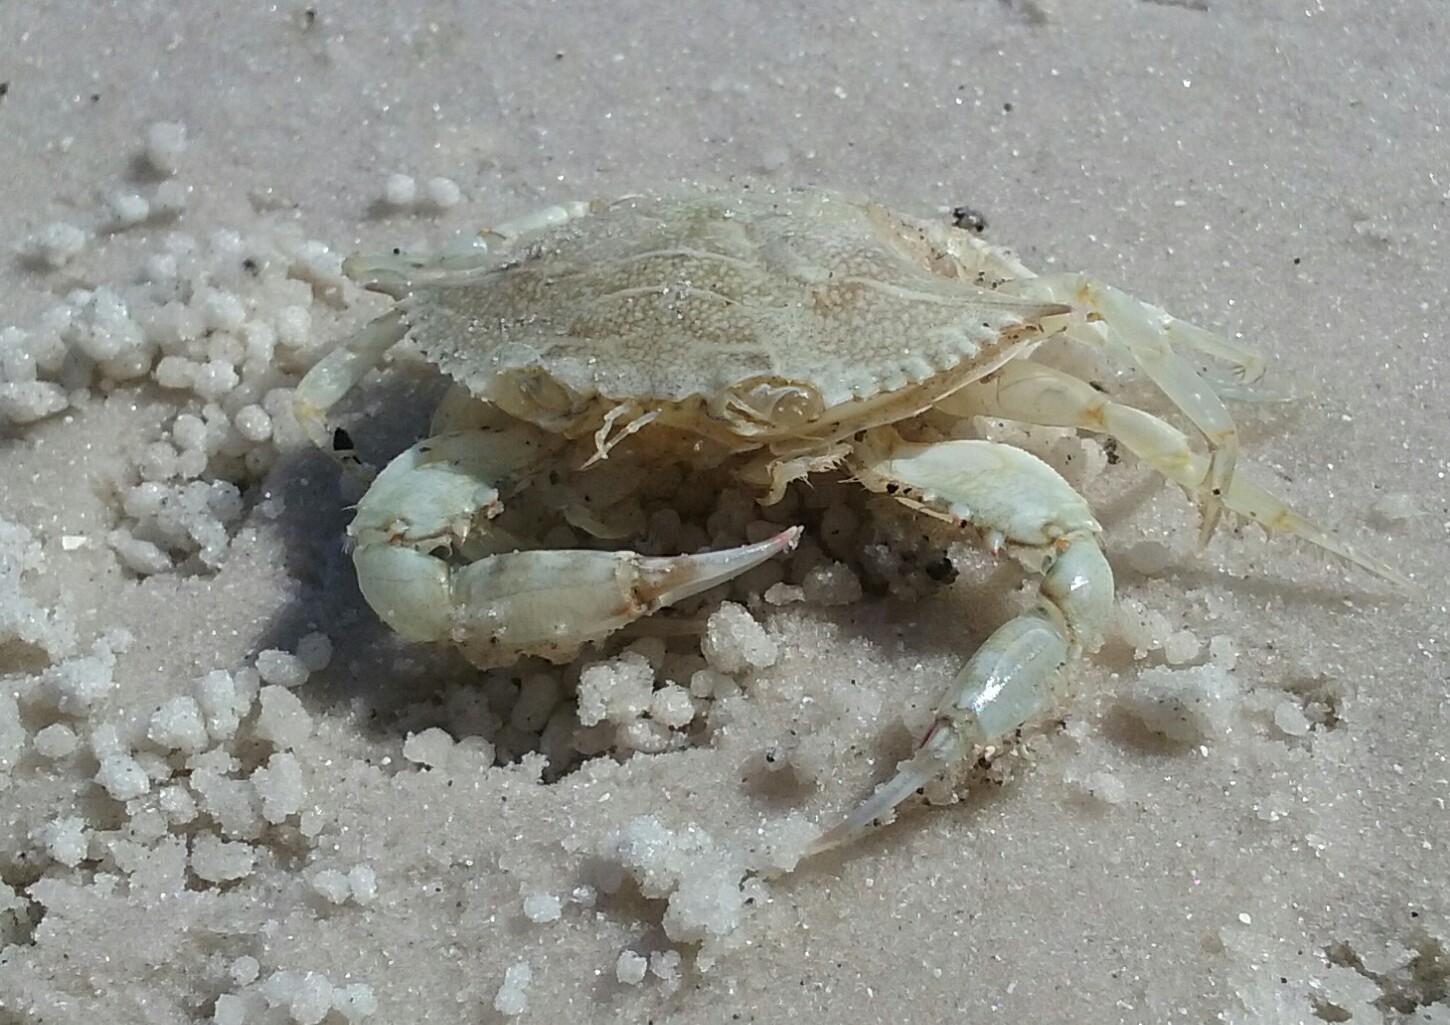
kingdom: Animalia
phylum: Arthropoda
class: Malacostraca
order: Decapoda
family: Portunidae
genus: Callinectes
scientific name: Callinectes sapidus
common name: Blue crab
